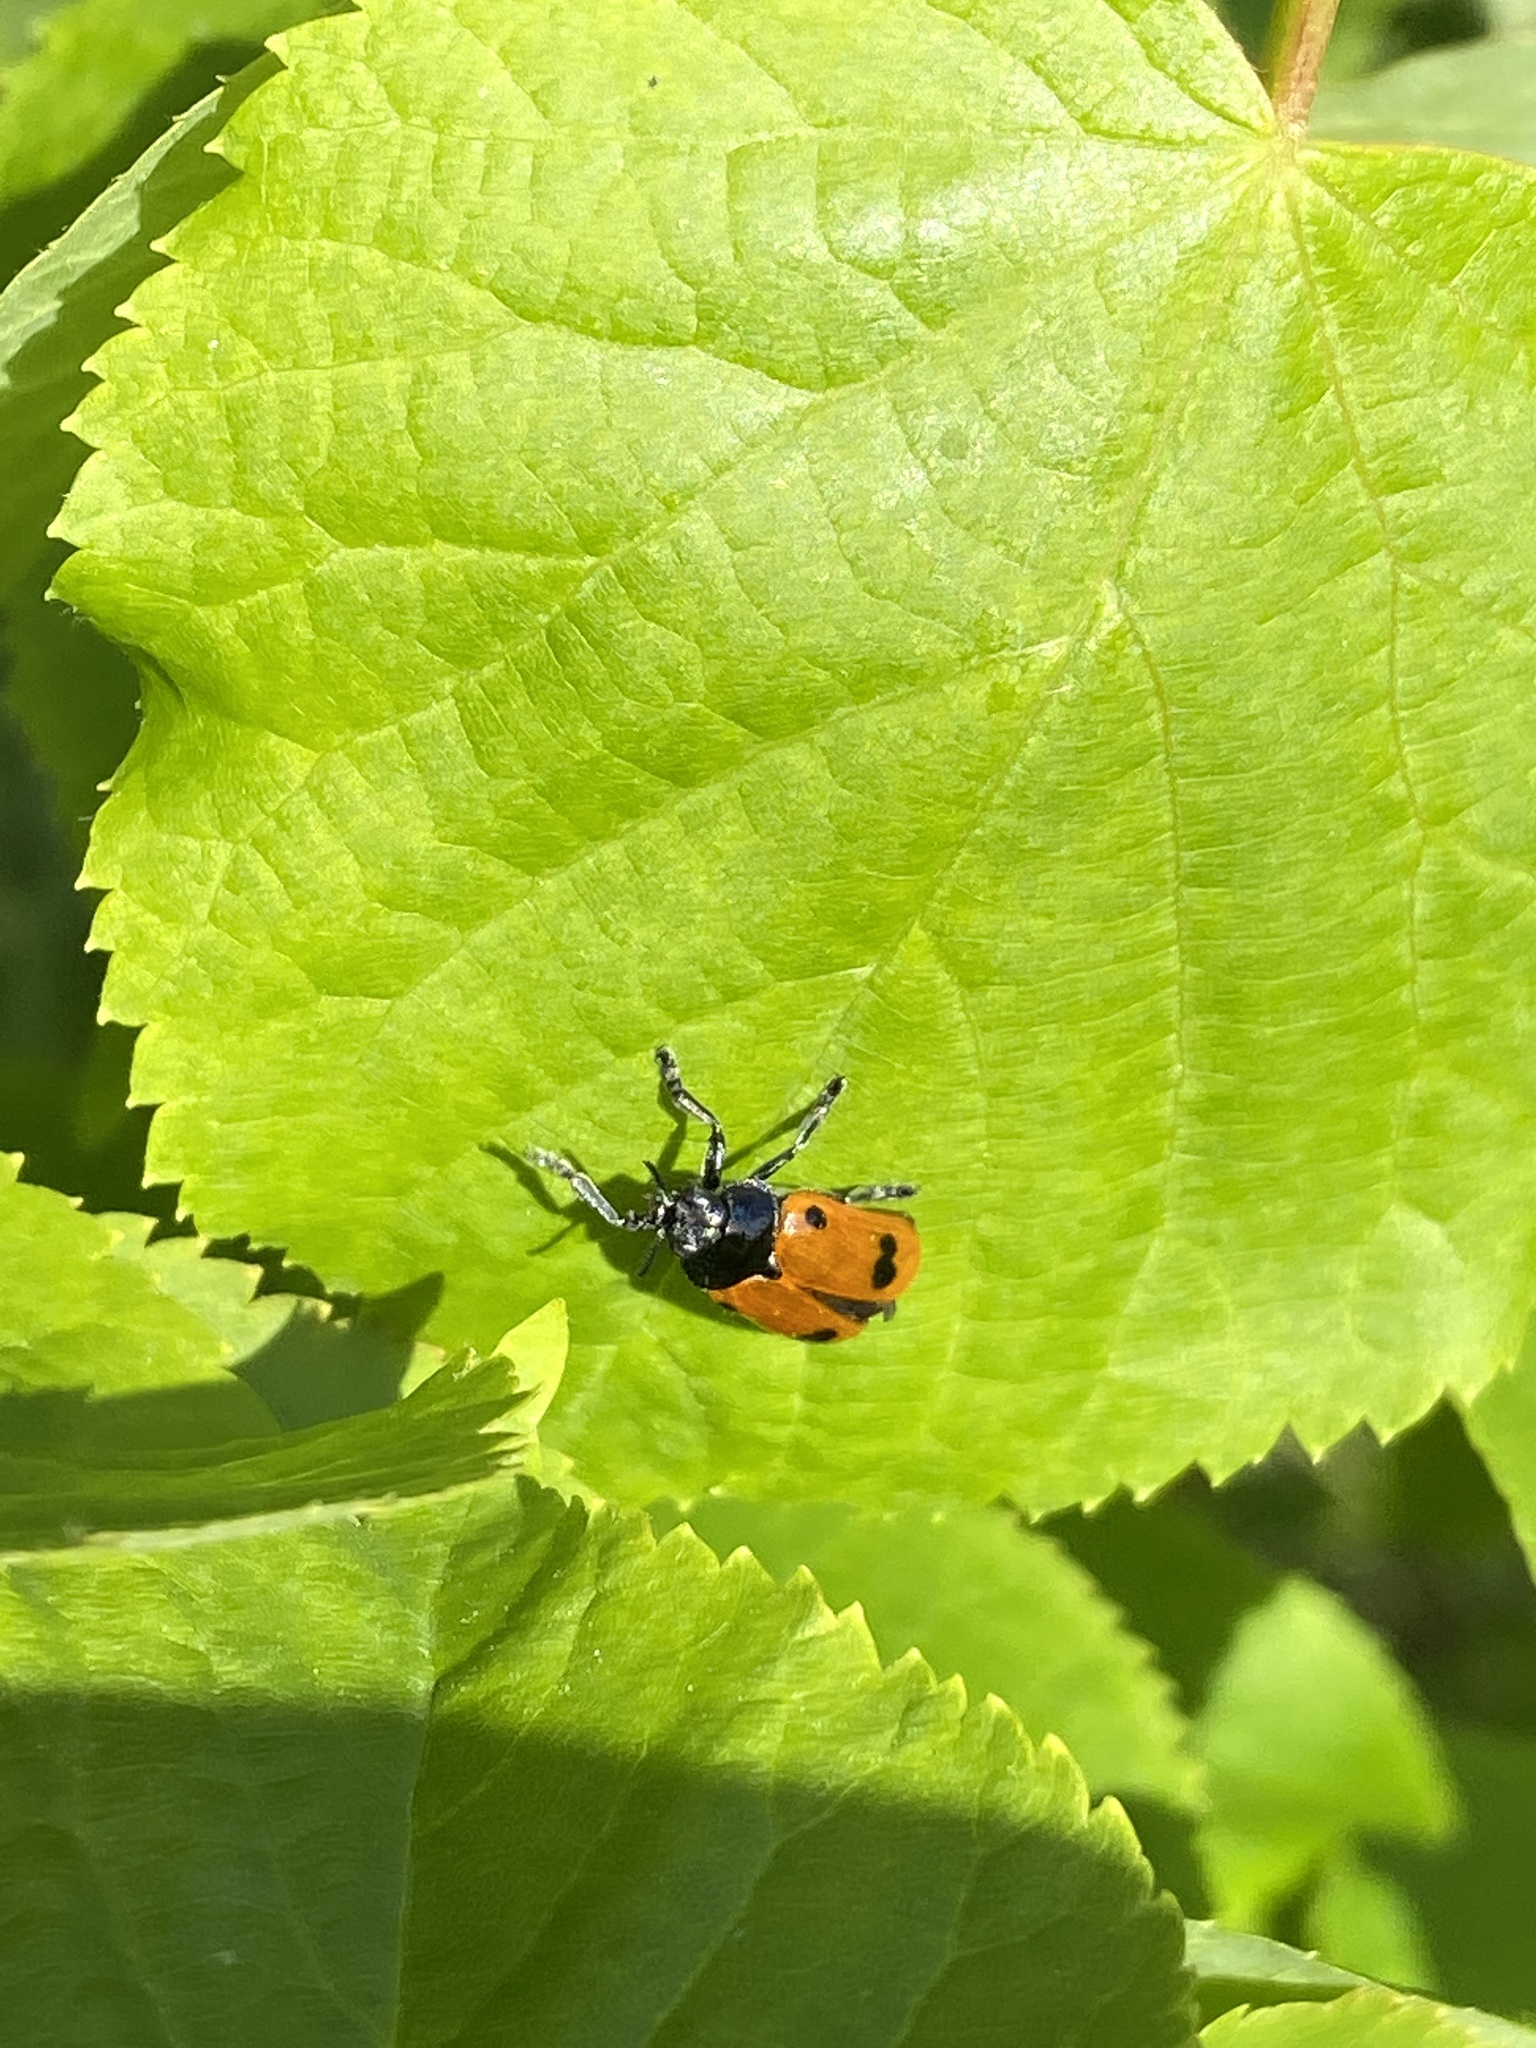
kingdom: Animalia
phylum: Arthropoda
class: Insecta
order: Coleoptera
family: Chrysomelidae
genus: Clytra
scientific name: Clytra laeviuscula
